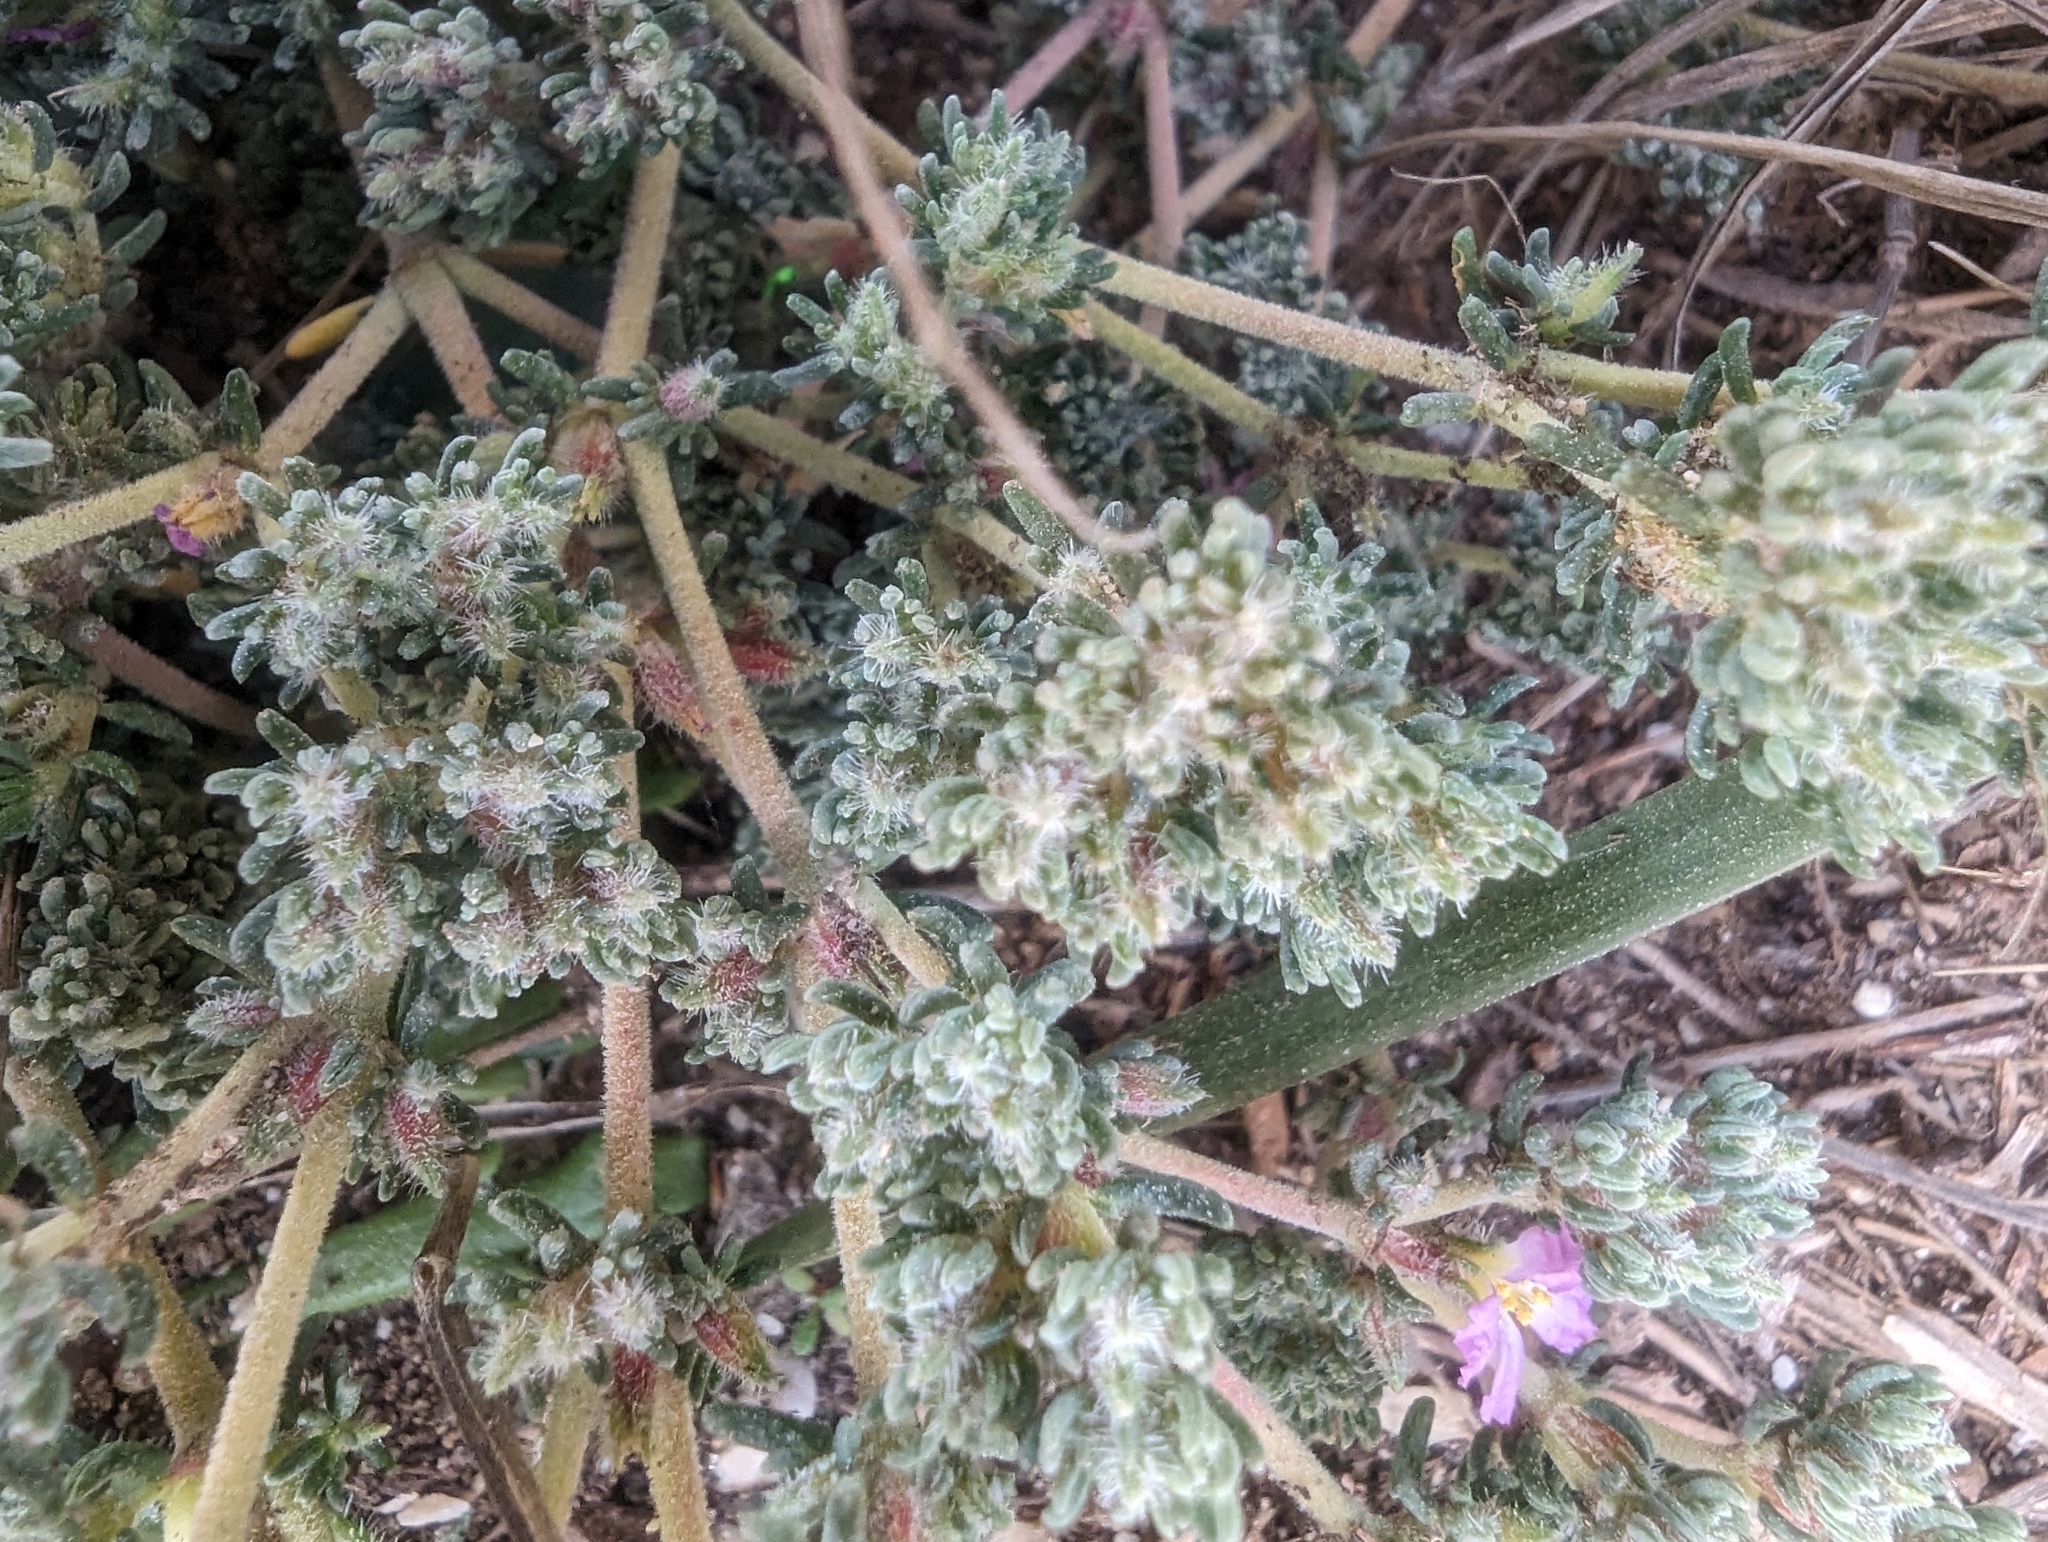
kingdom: Plantae
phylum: Tracheophyta
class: Magnoliopsida
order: Caryophyllales
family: Frankeniaceae
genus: Frankenia
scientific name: Frankenia hirsuta
